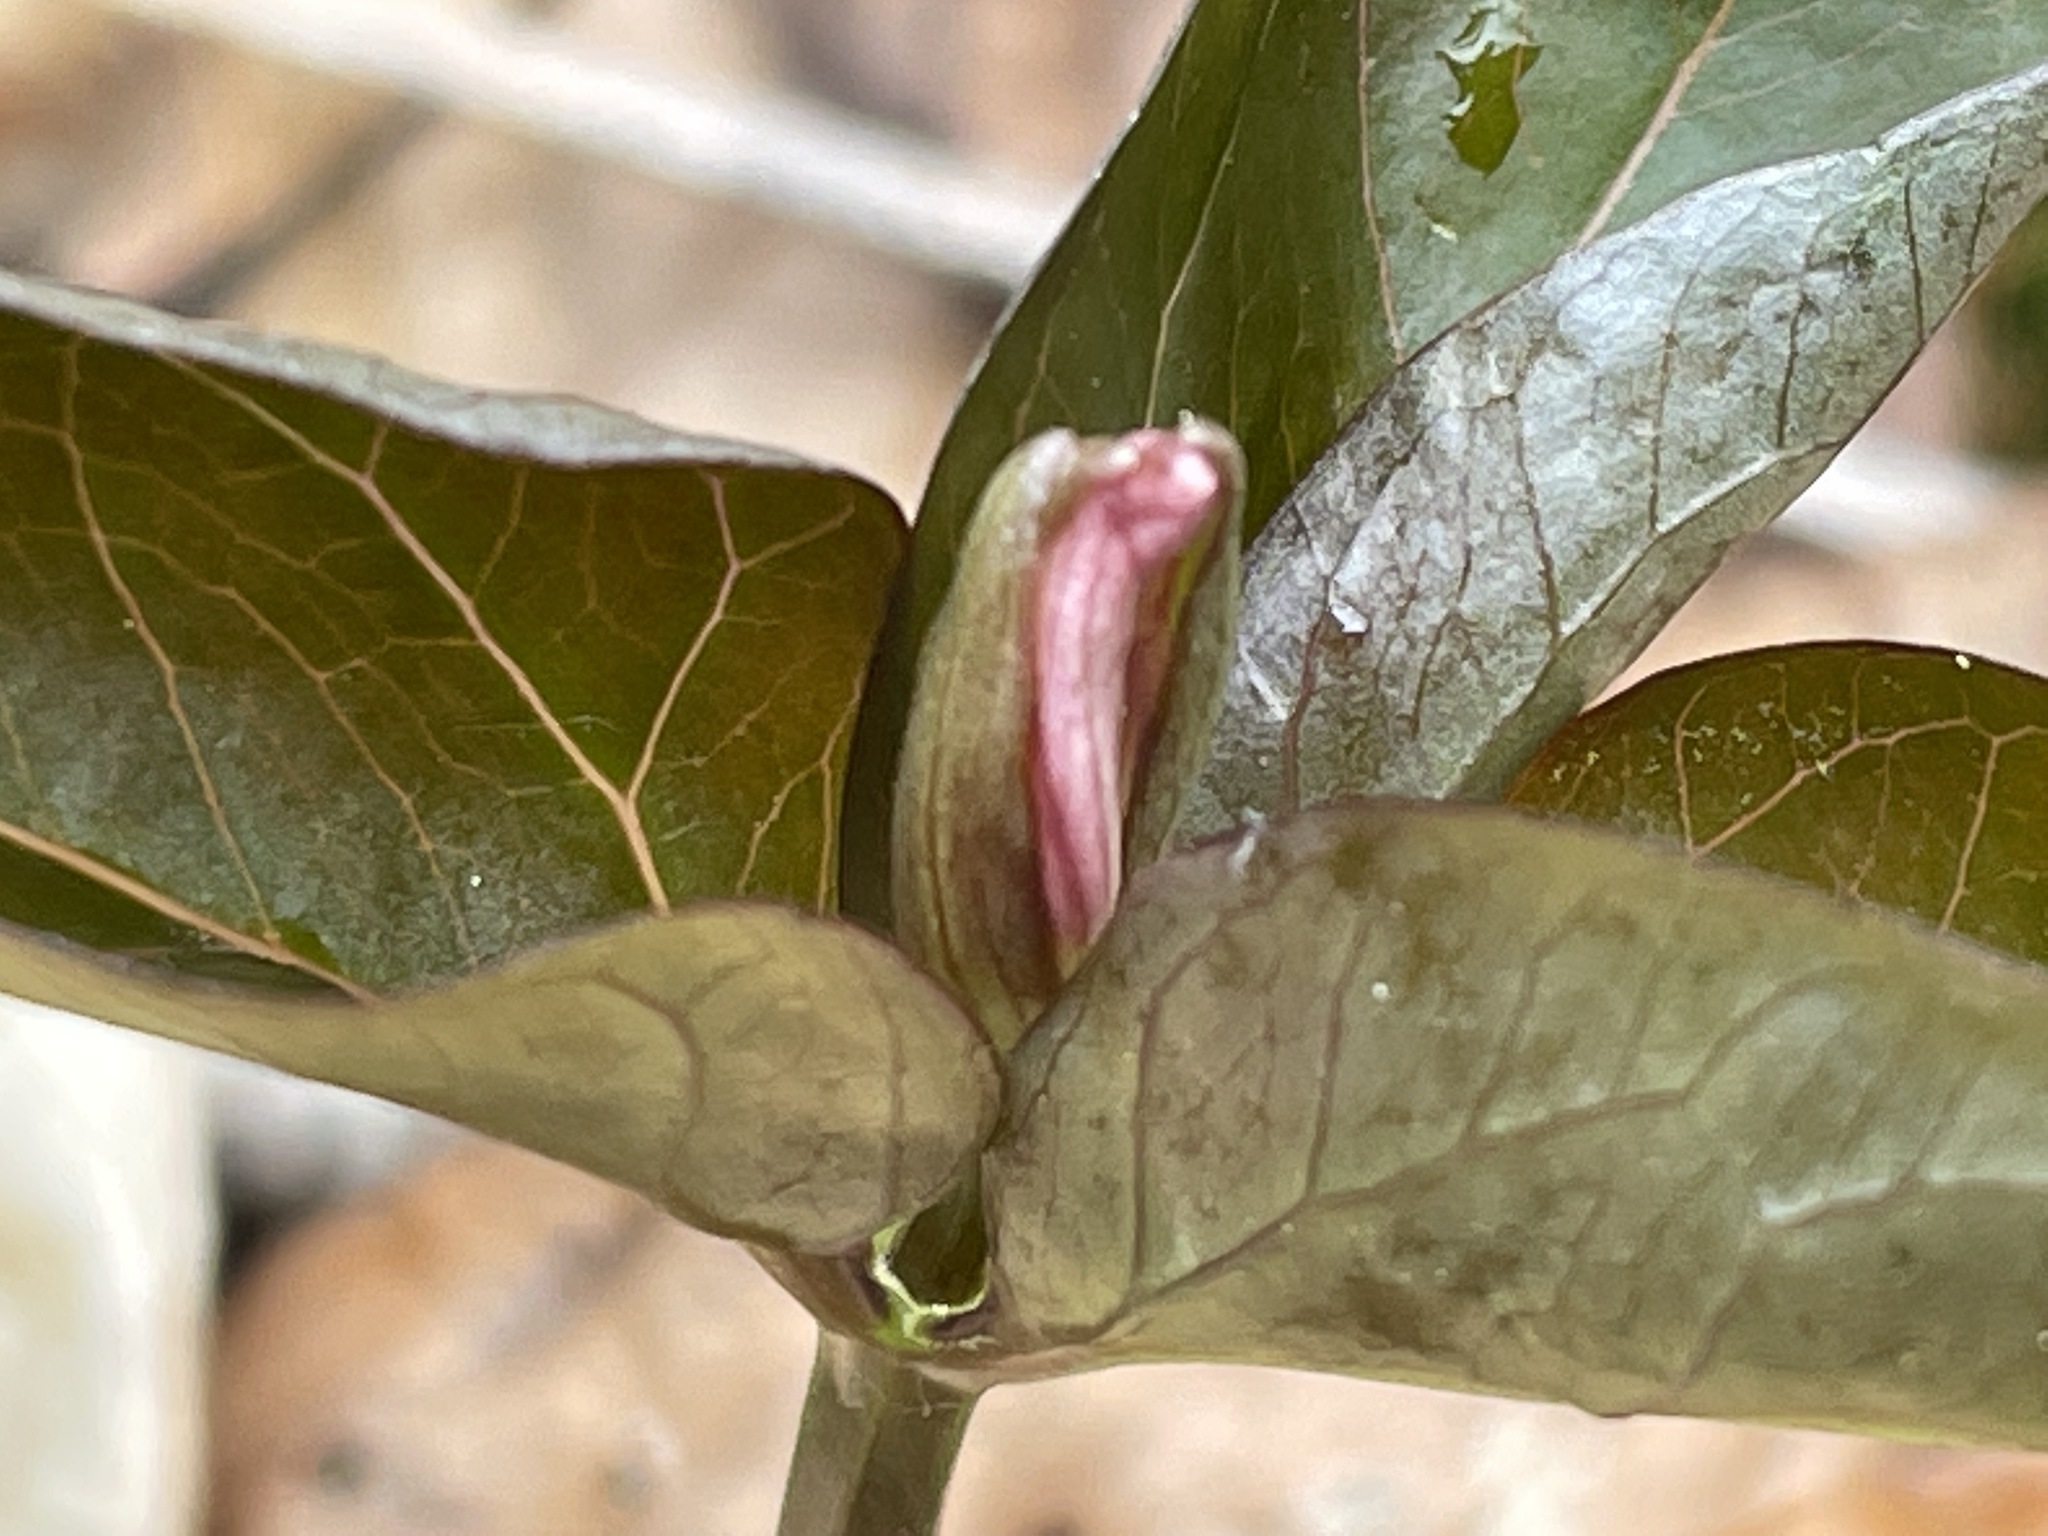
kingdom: Plantae
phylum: Tracheophyta
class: Liliopsida
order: Liliales
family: Melanthiaceae
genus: Trillium
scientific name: Trillium undulatum
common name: Paint trillium
